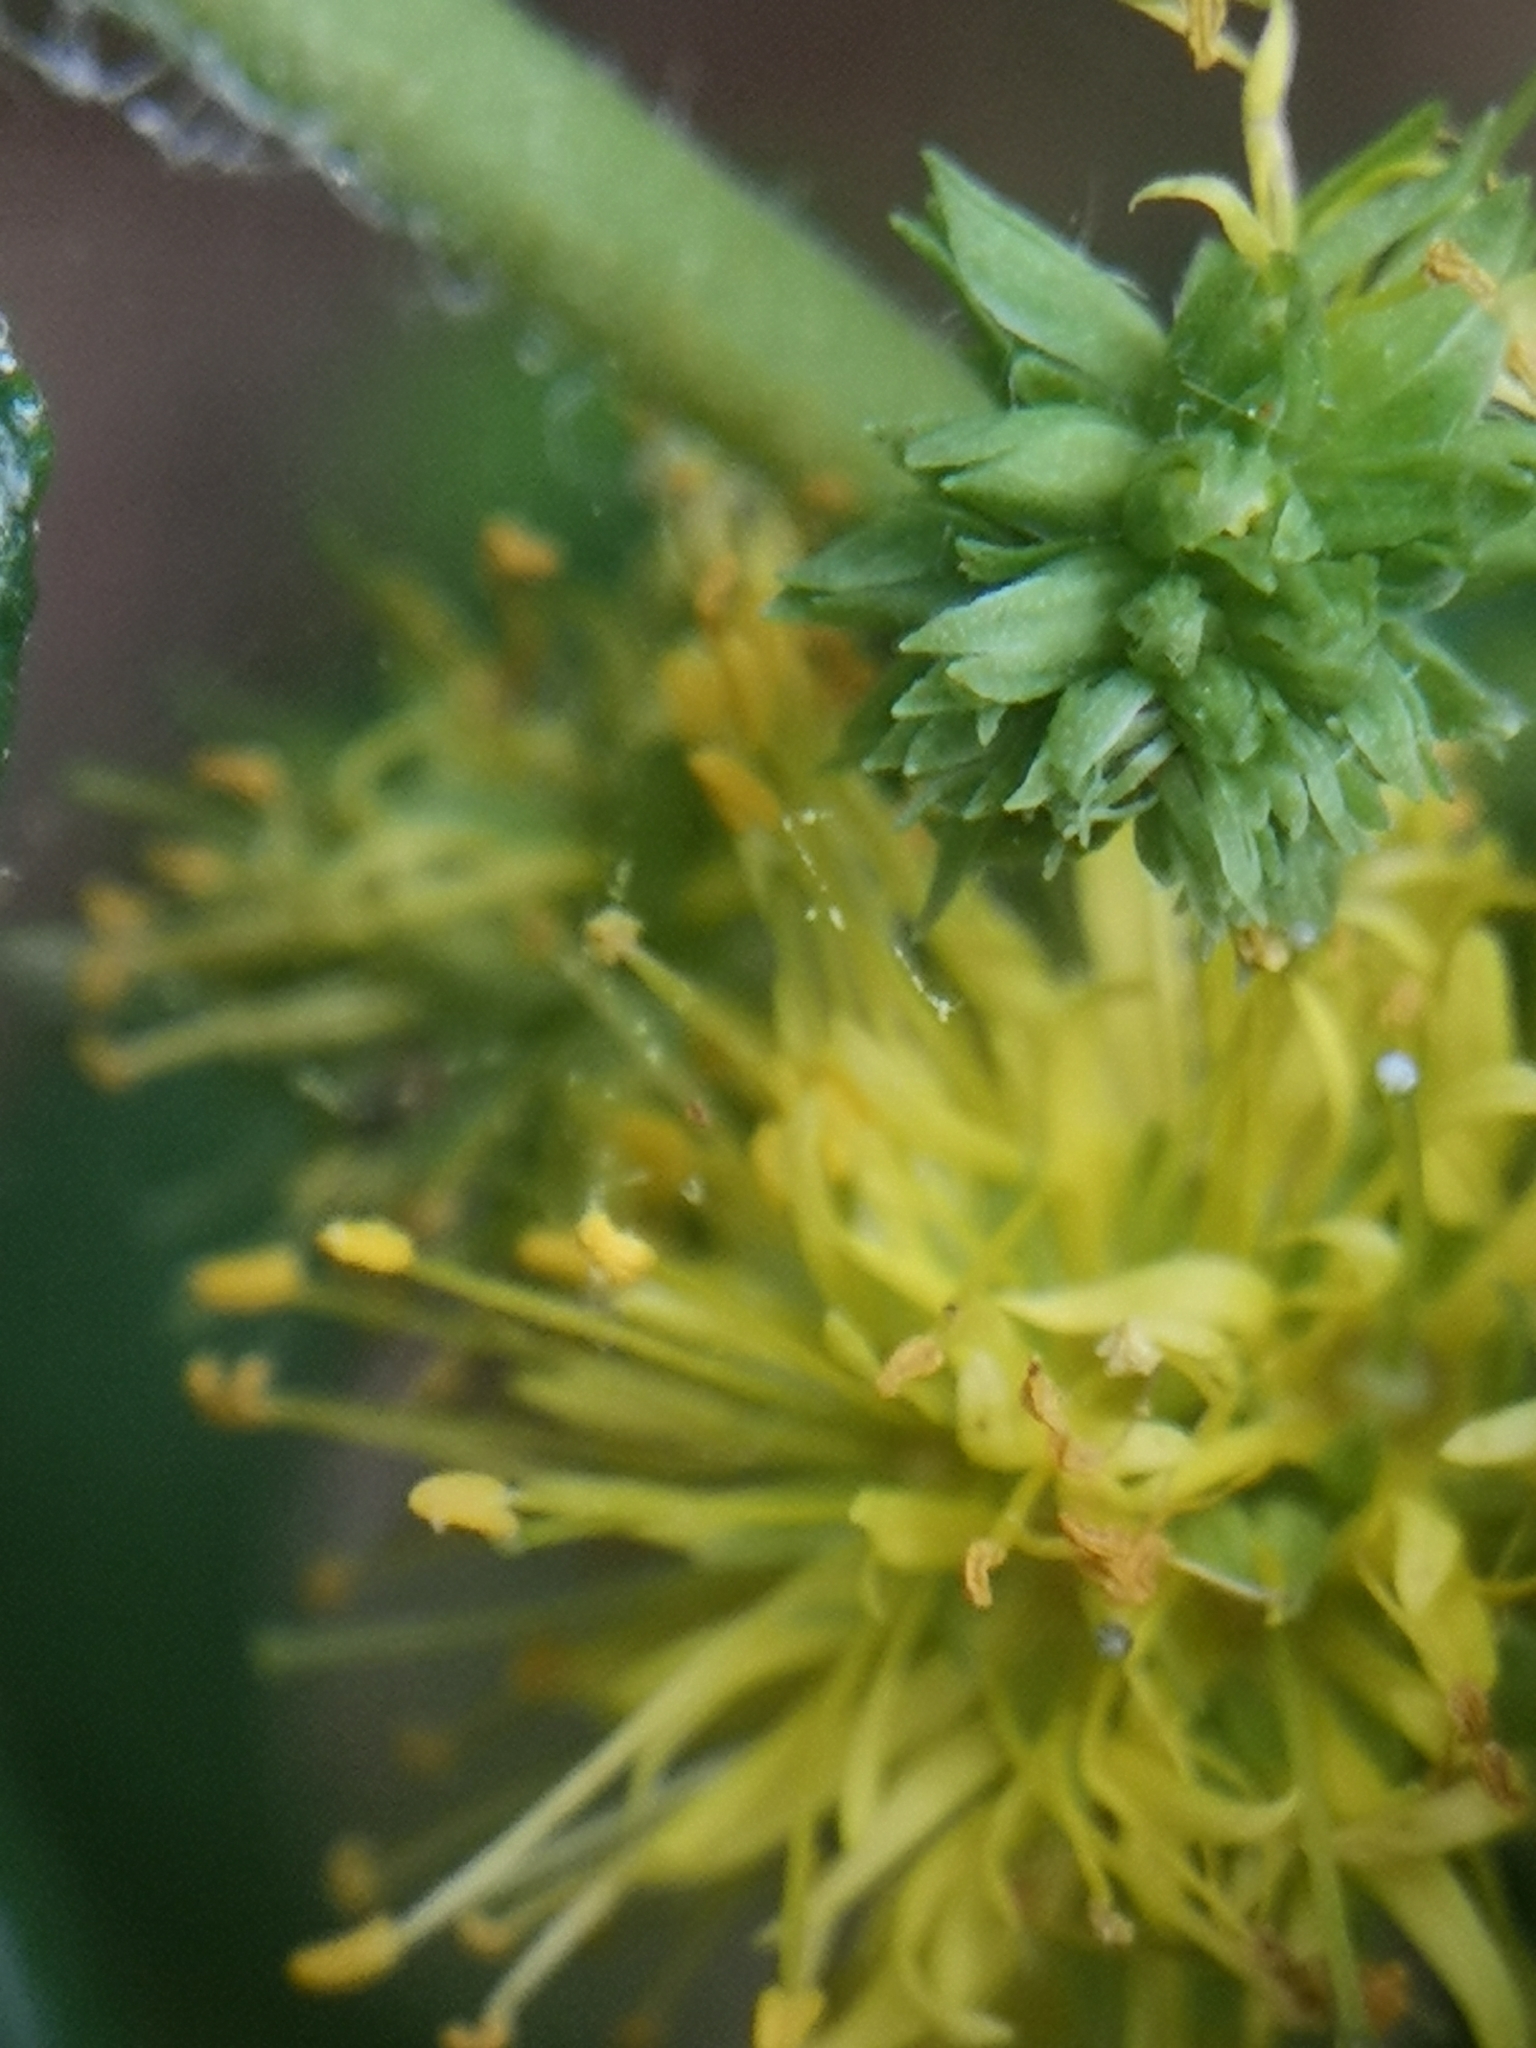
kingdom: Plantae
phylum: Tracheophyta
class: Magnoliopsida
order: Ericales
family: Primulaceae
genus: Lysimachia
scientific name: Lysimachia thyrsiflora
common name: Tufted loosestrife
